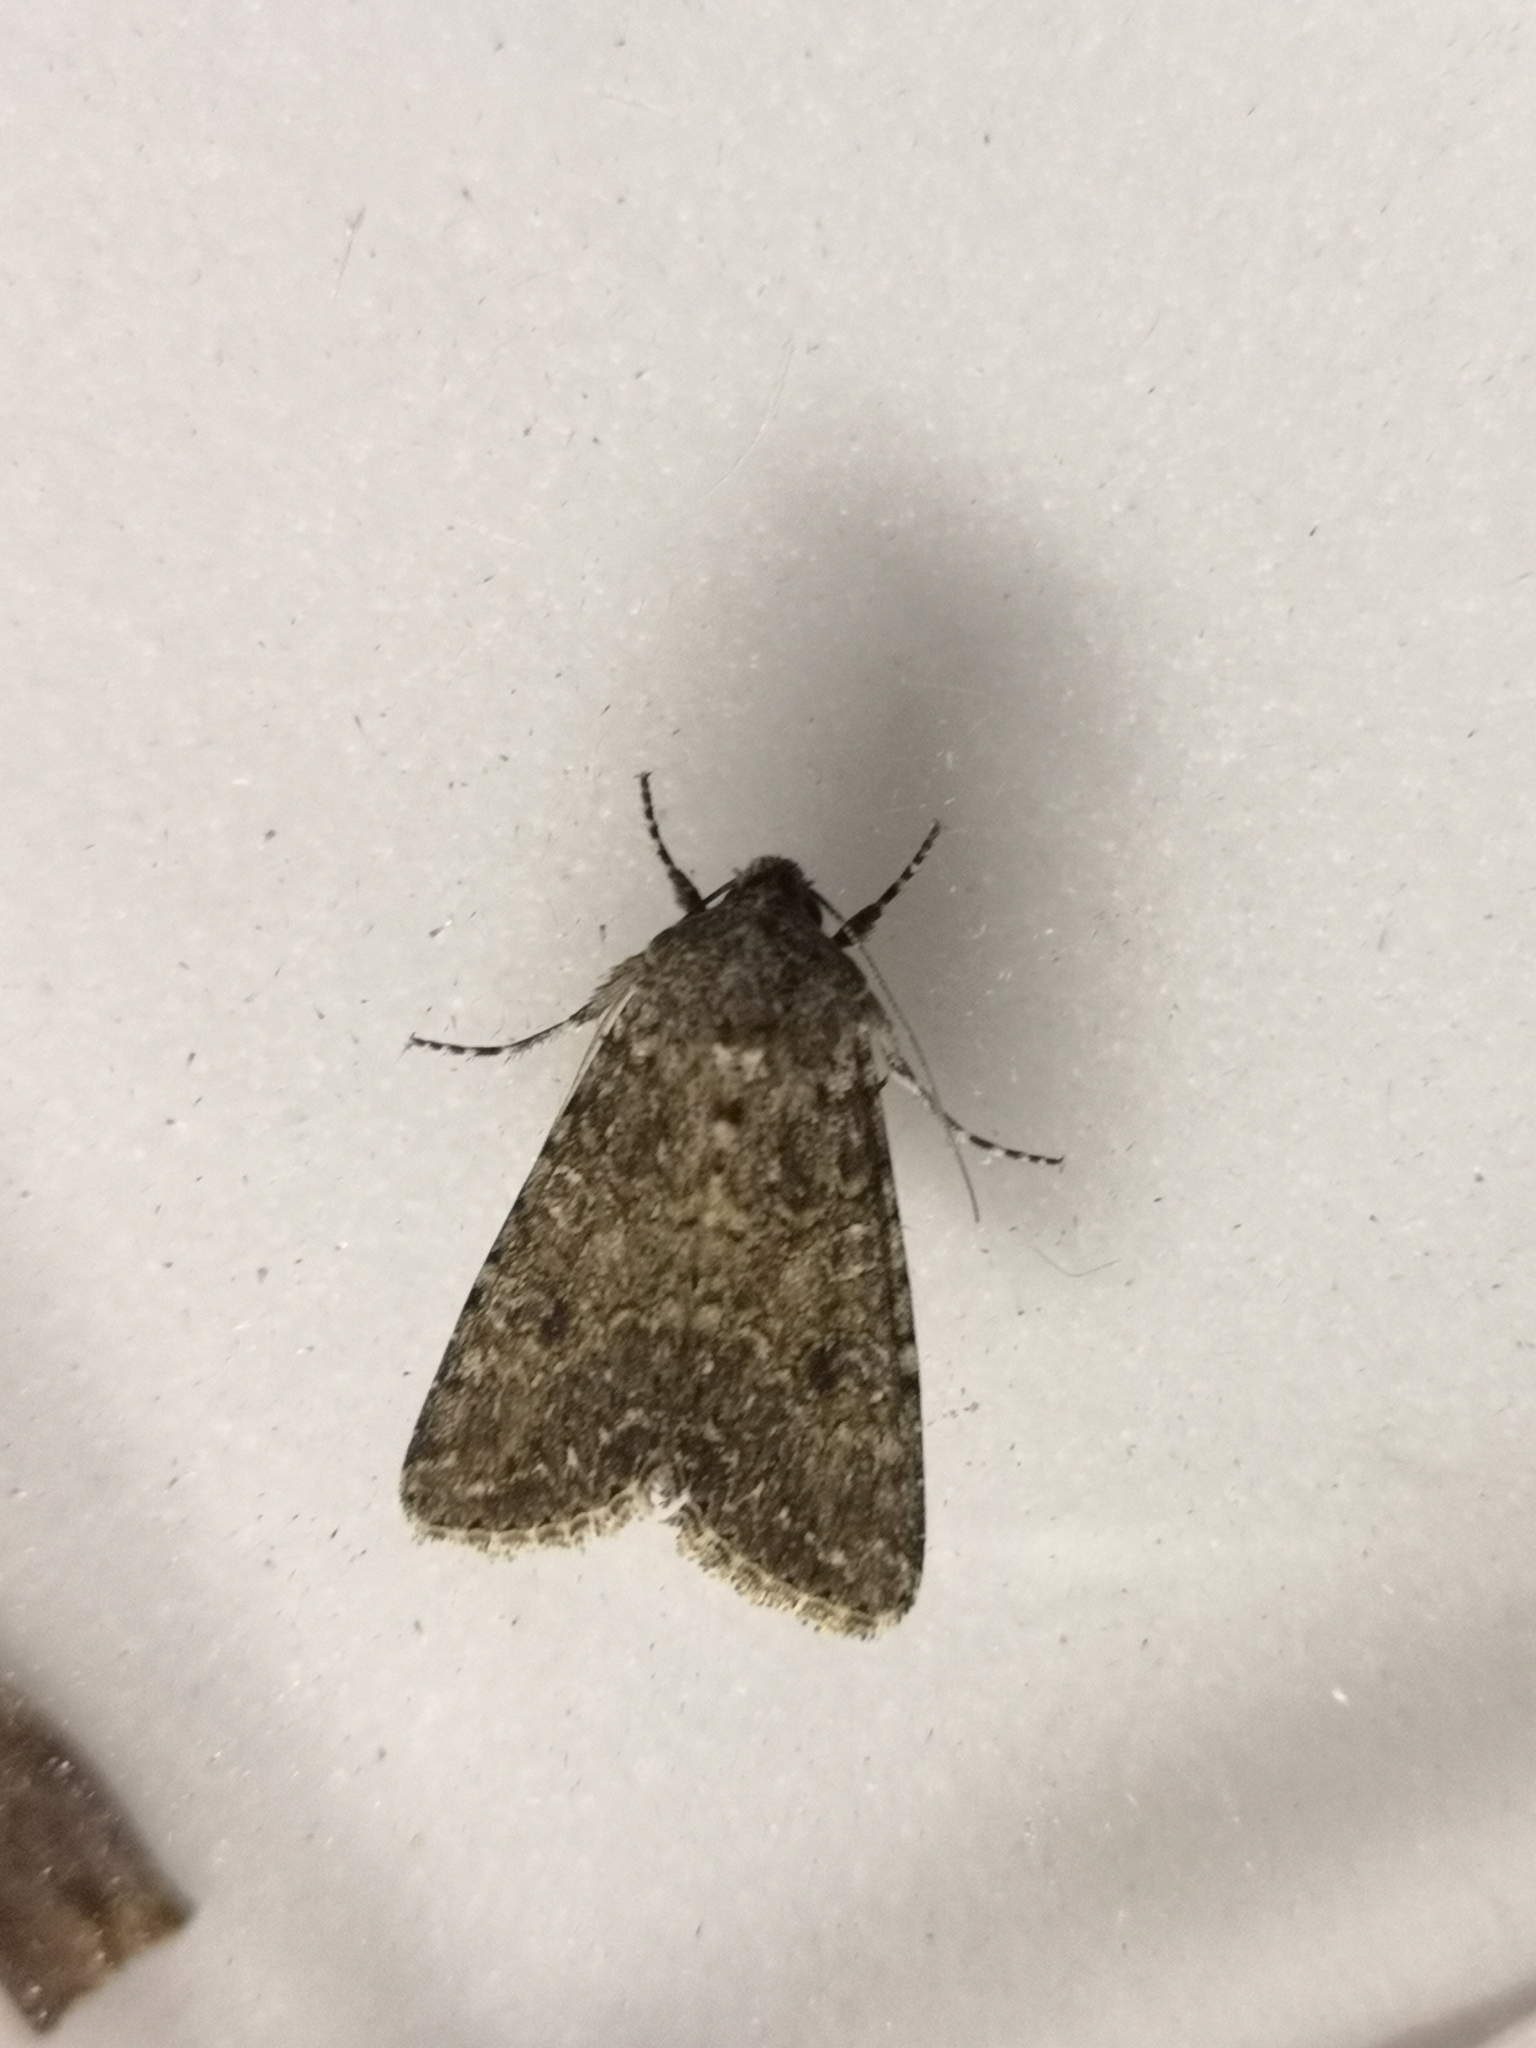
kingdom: Animalia
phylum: Arthropoda
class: Insecta
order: Lepidoptera
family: Noctuidae
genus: Anarta
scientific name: Anarta trifolii
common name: Clover cutworm moth
